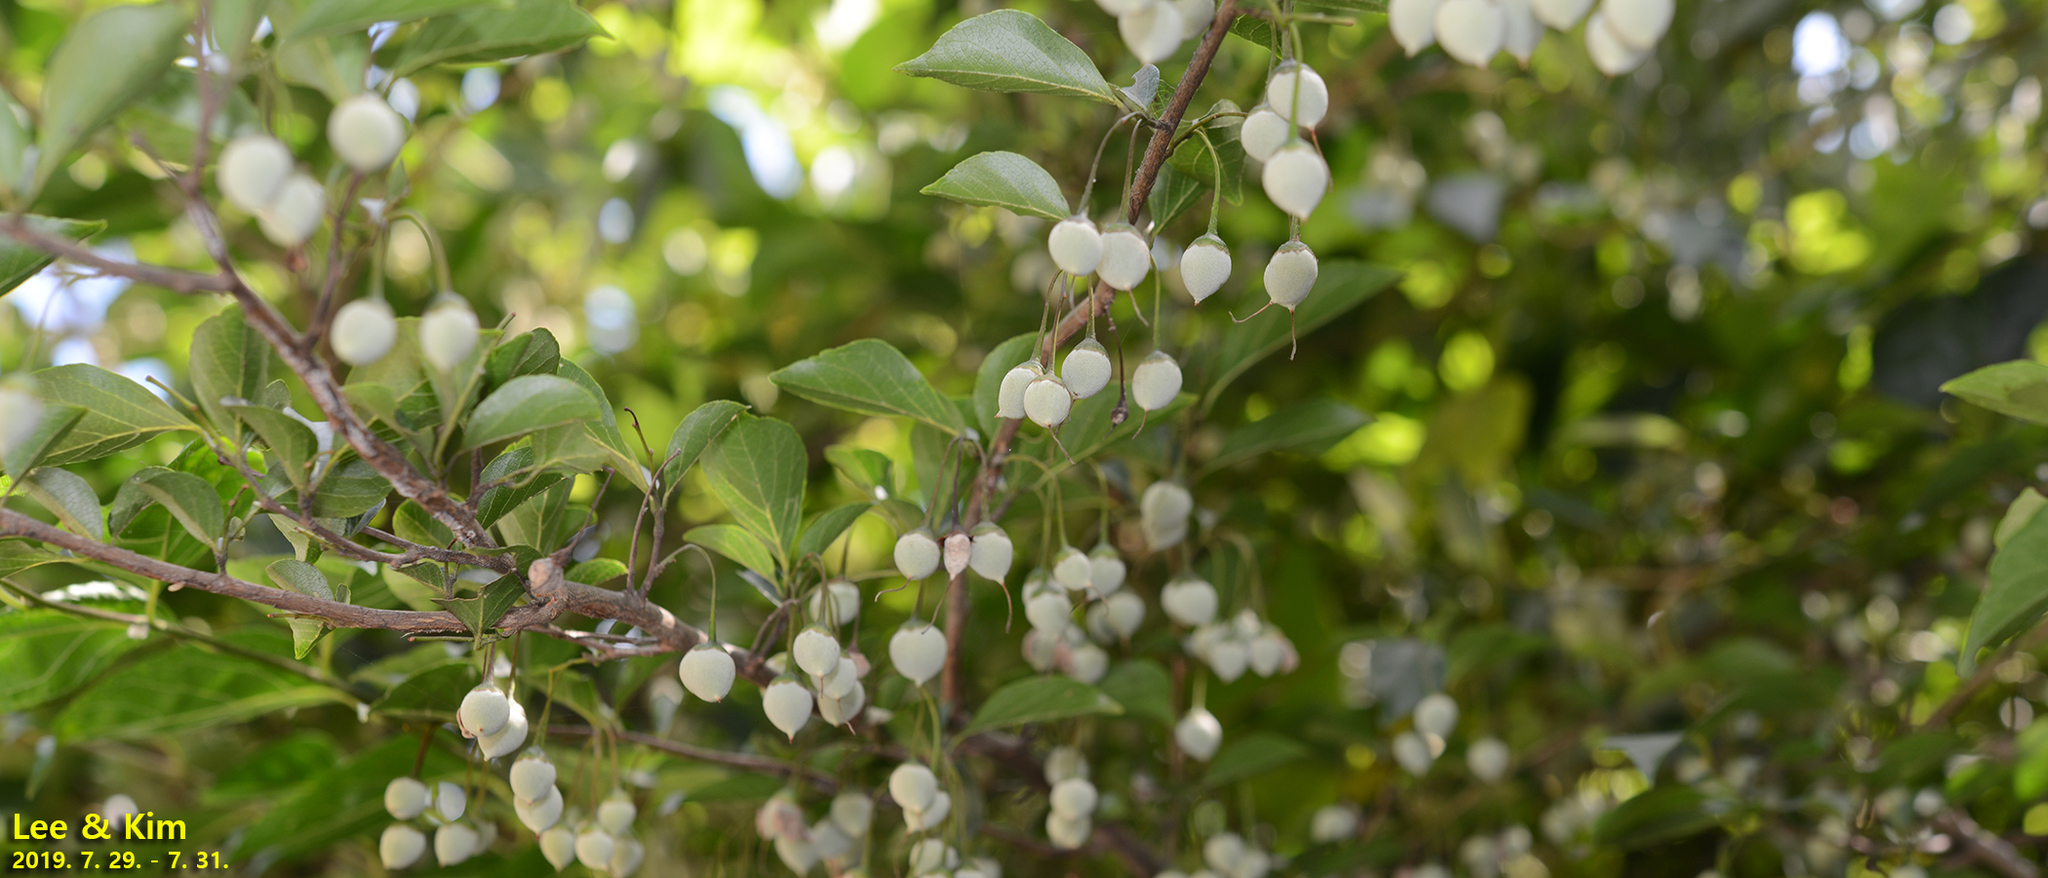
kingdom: Plantae
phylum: Tracheophyta
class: Magnoliopsida
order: Ericales
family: Styracaceae
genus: Styrax
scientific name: Styrax japonicus
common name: Japanese snowbell
